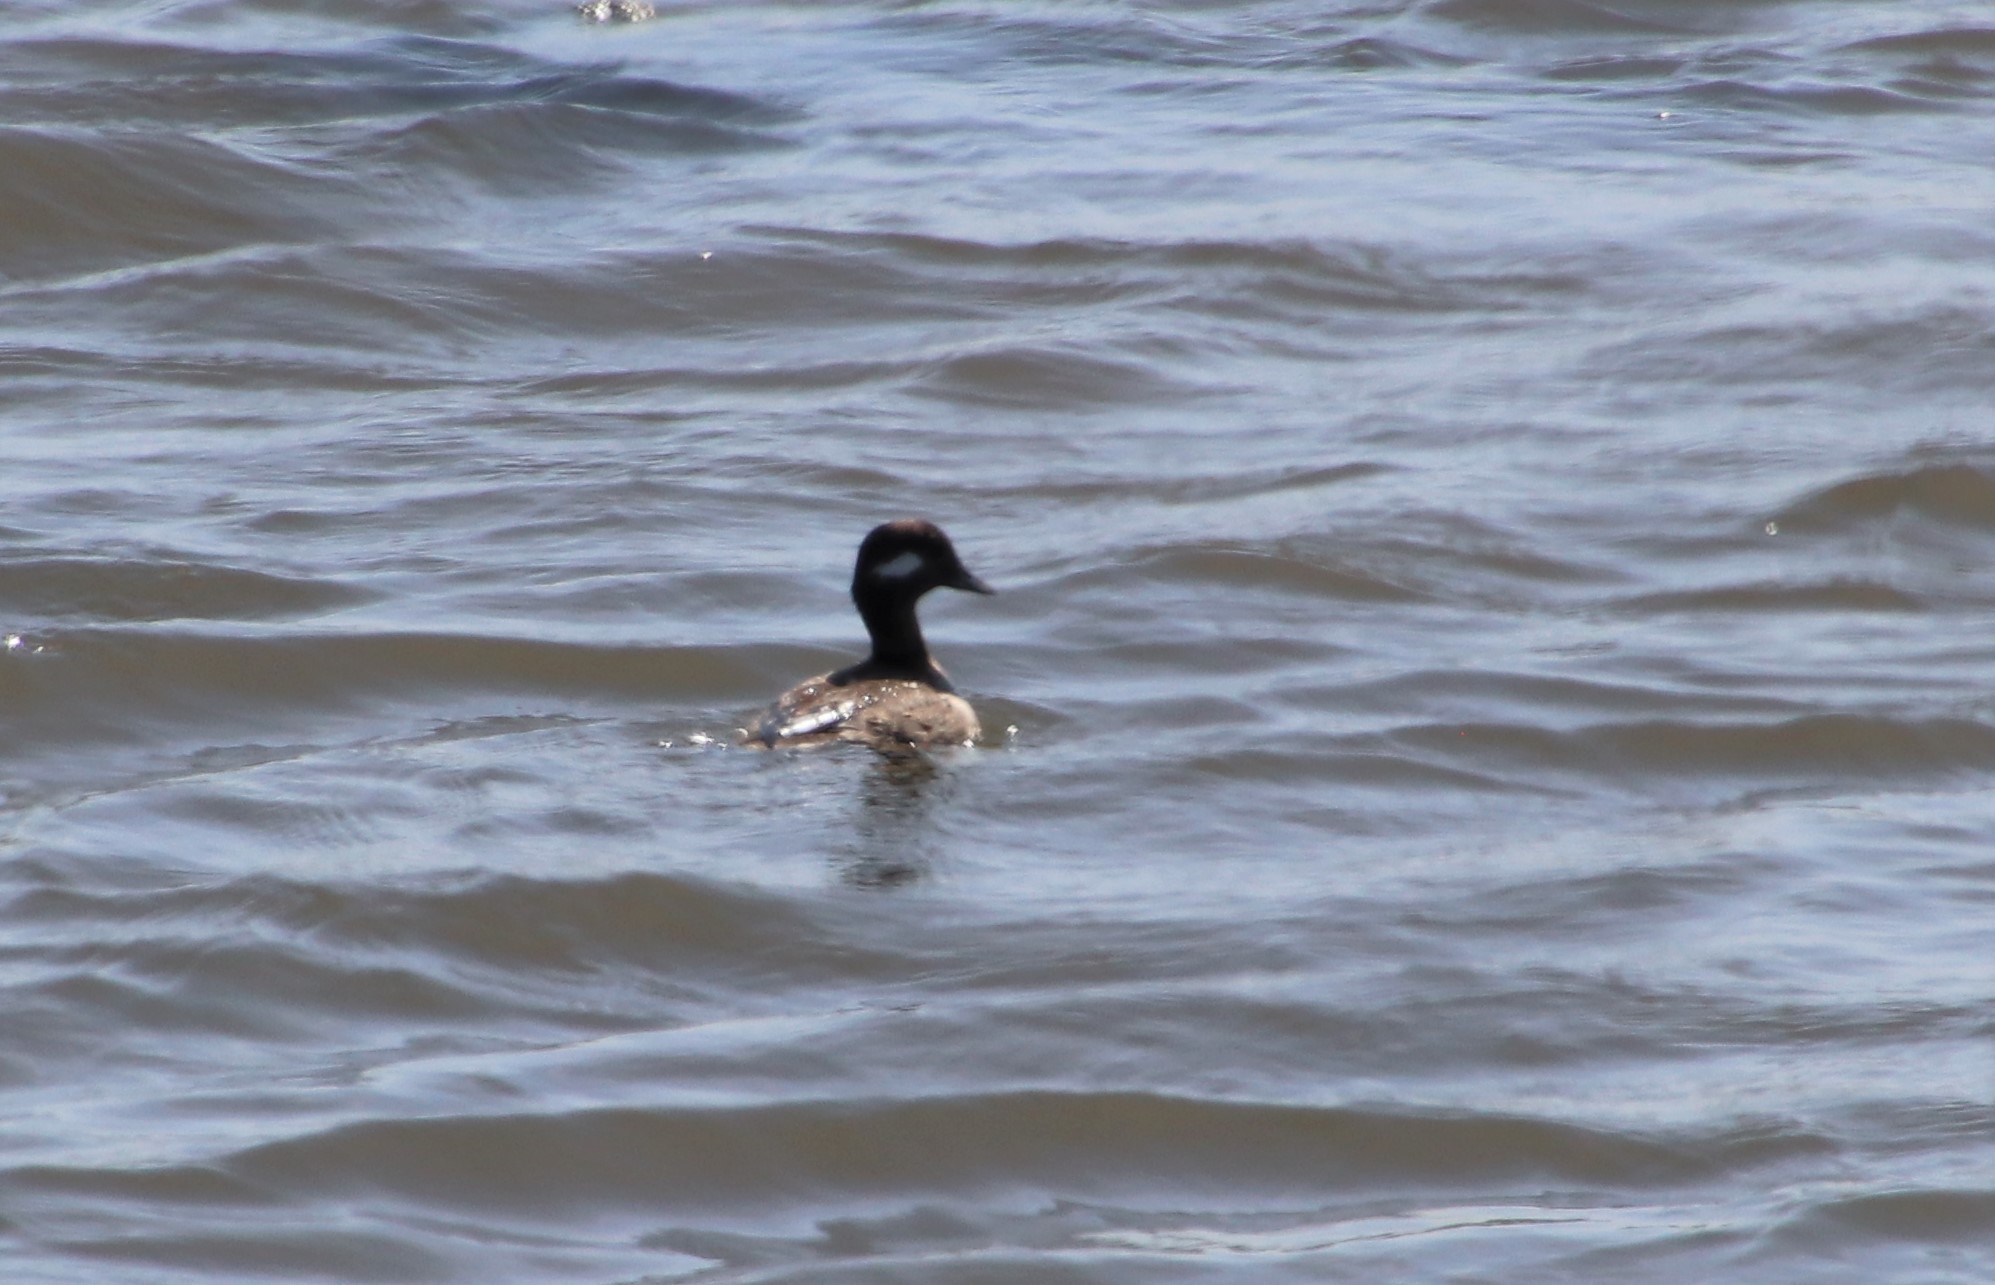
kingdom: Animalia
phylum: Chordata
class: Aves
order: Anseriformes
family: Anatidae
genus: Bucephala
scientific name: Bucephala albeola
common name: Bufflehead
